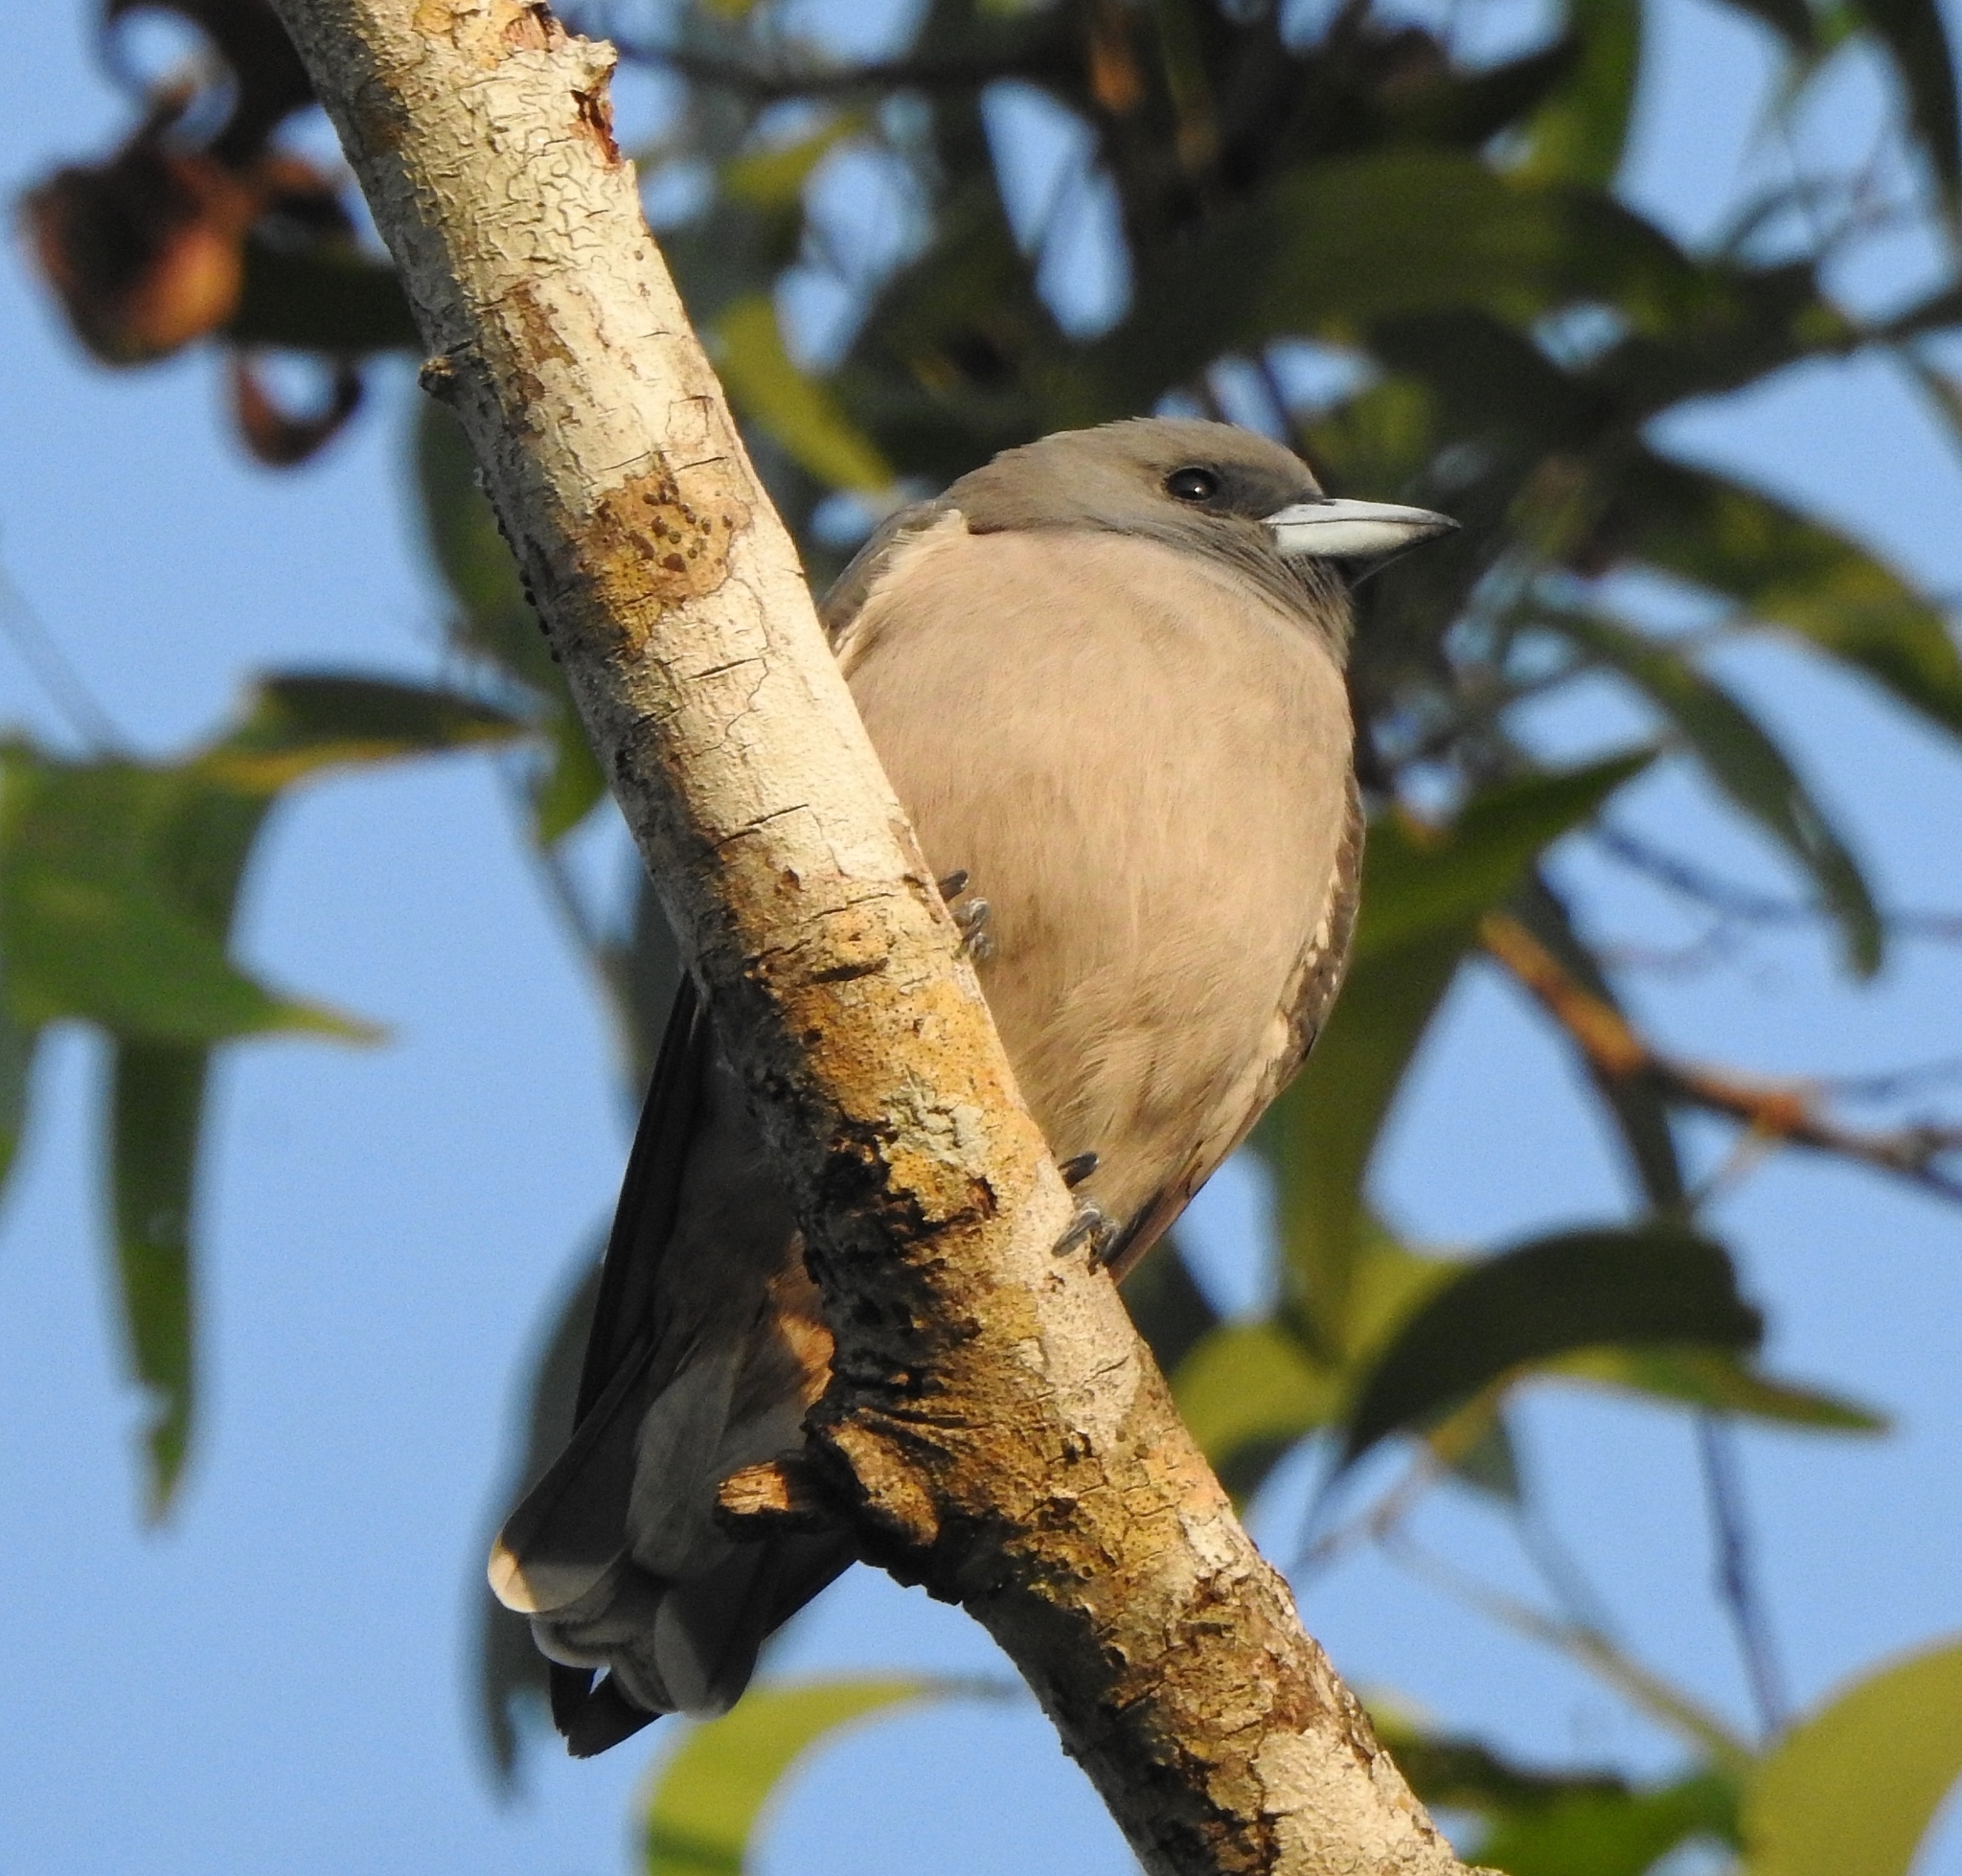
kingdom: Animalia
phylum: Chordata
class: Aves
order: Passeriformes
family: Artamidae
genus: Artamus
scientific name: Artamus fuscus
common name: Ashy woodswallow
